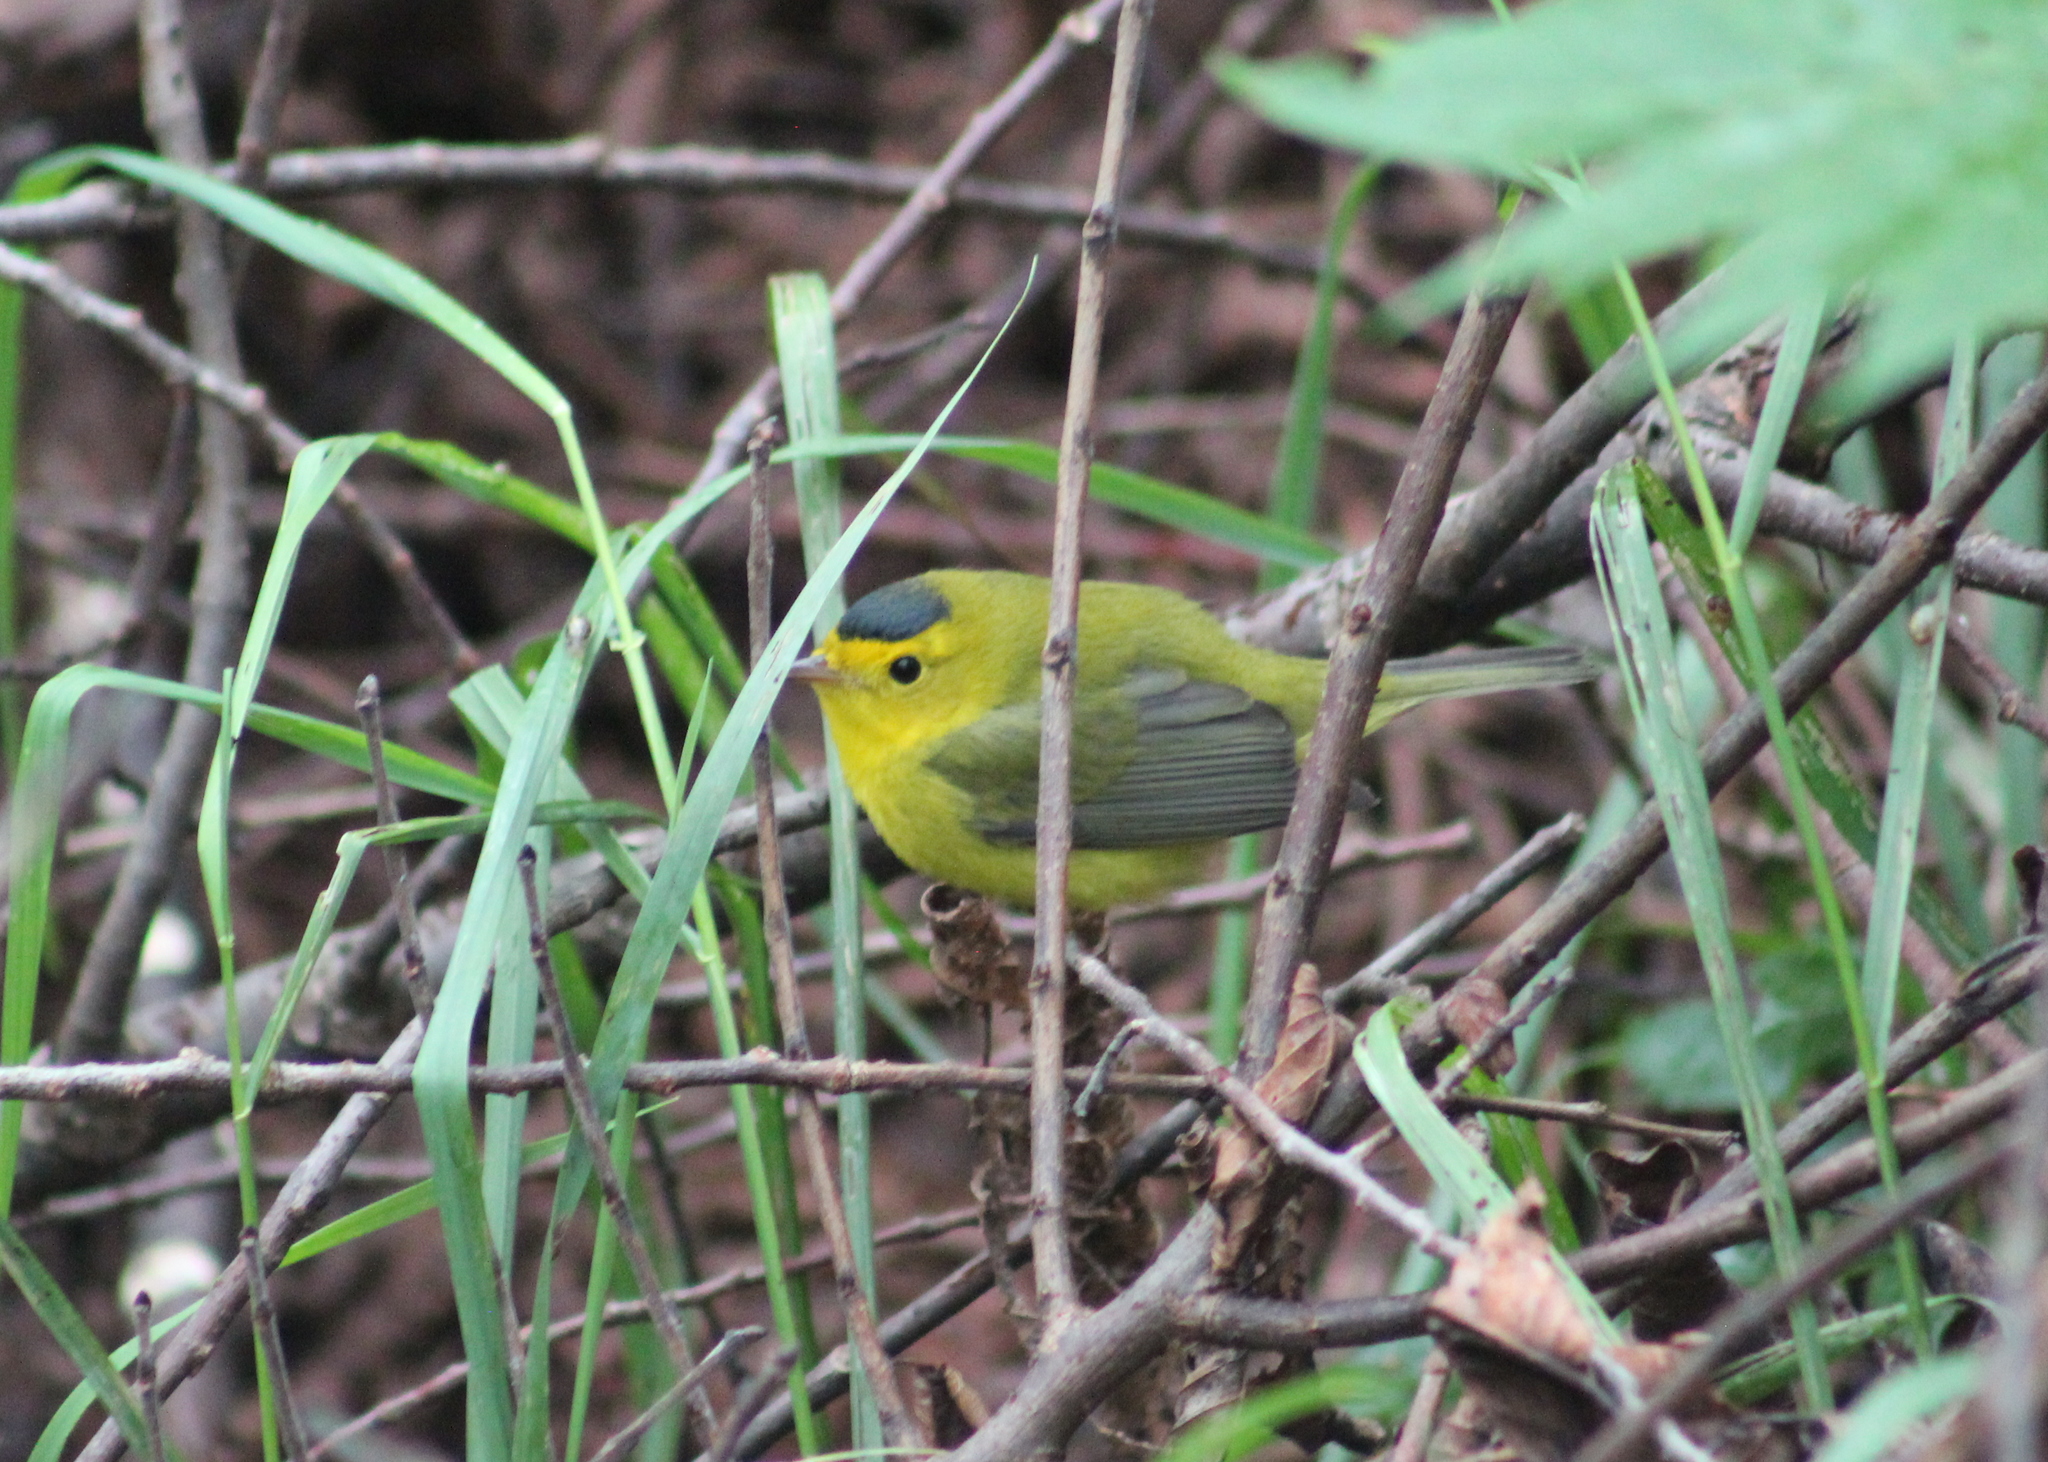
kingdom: Animalia
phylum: Chordata
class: Aves
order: Passeriformes
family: Parulidae
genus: Cardellina
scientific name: Cardellina pusilla
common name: Wilson's warbler
